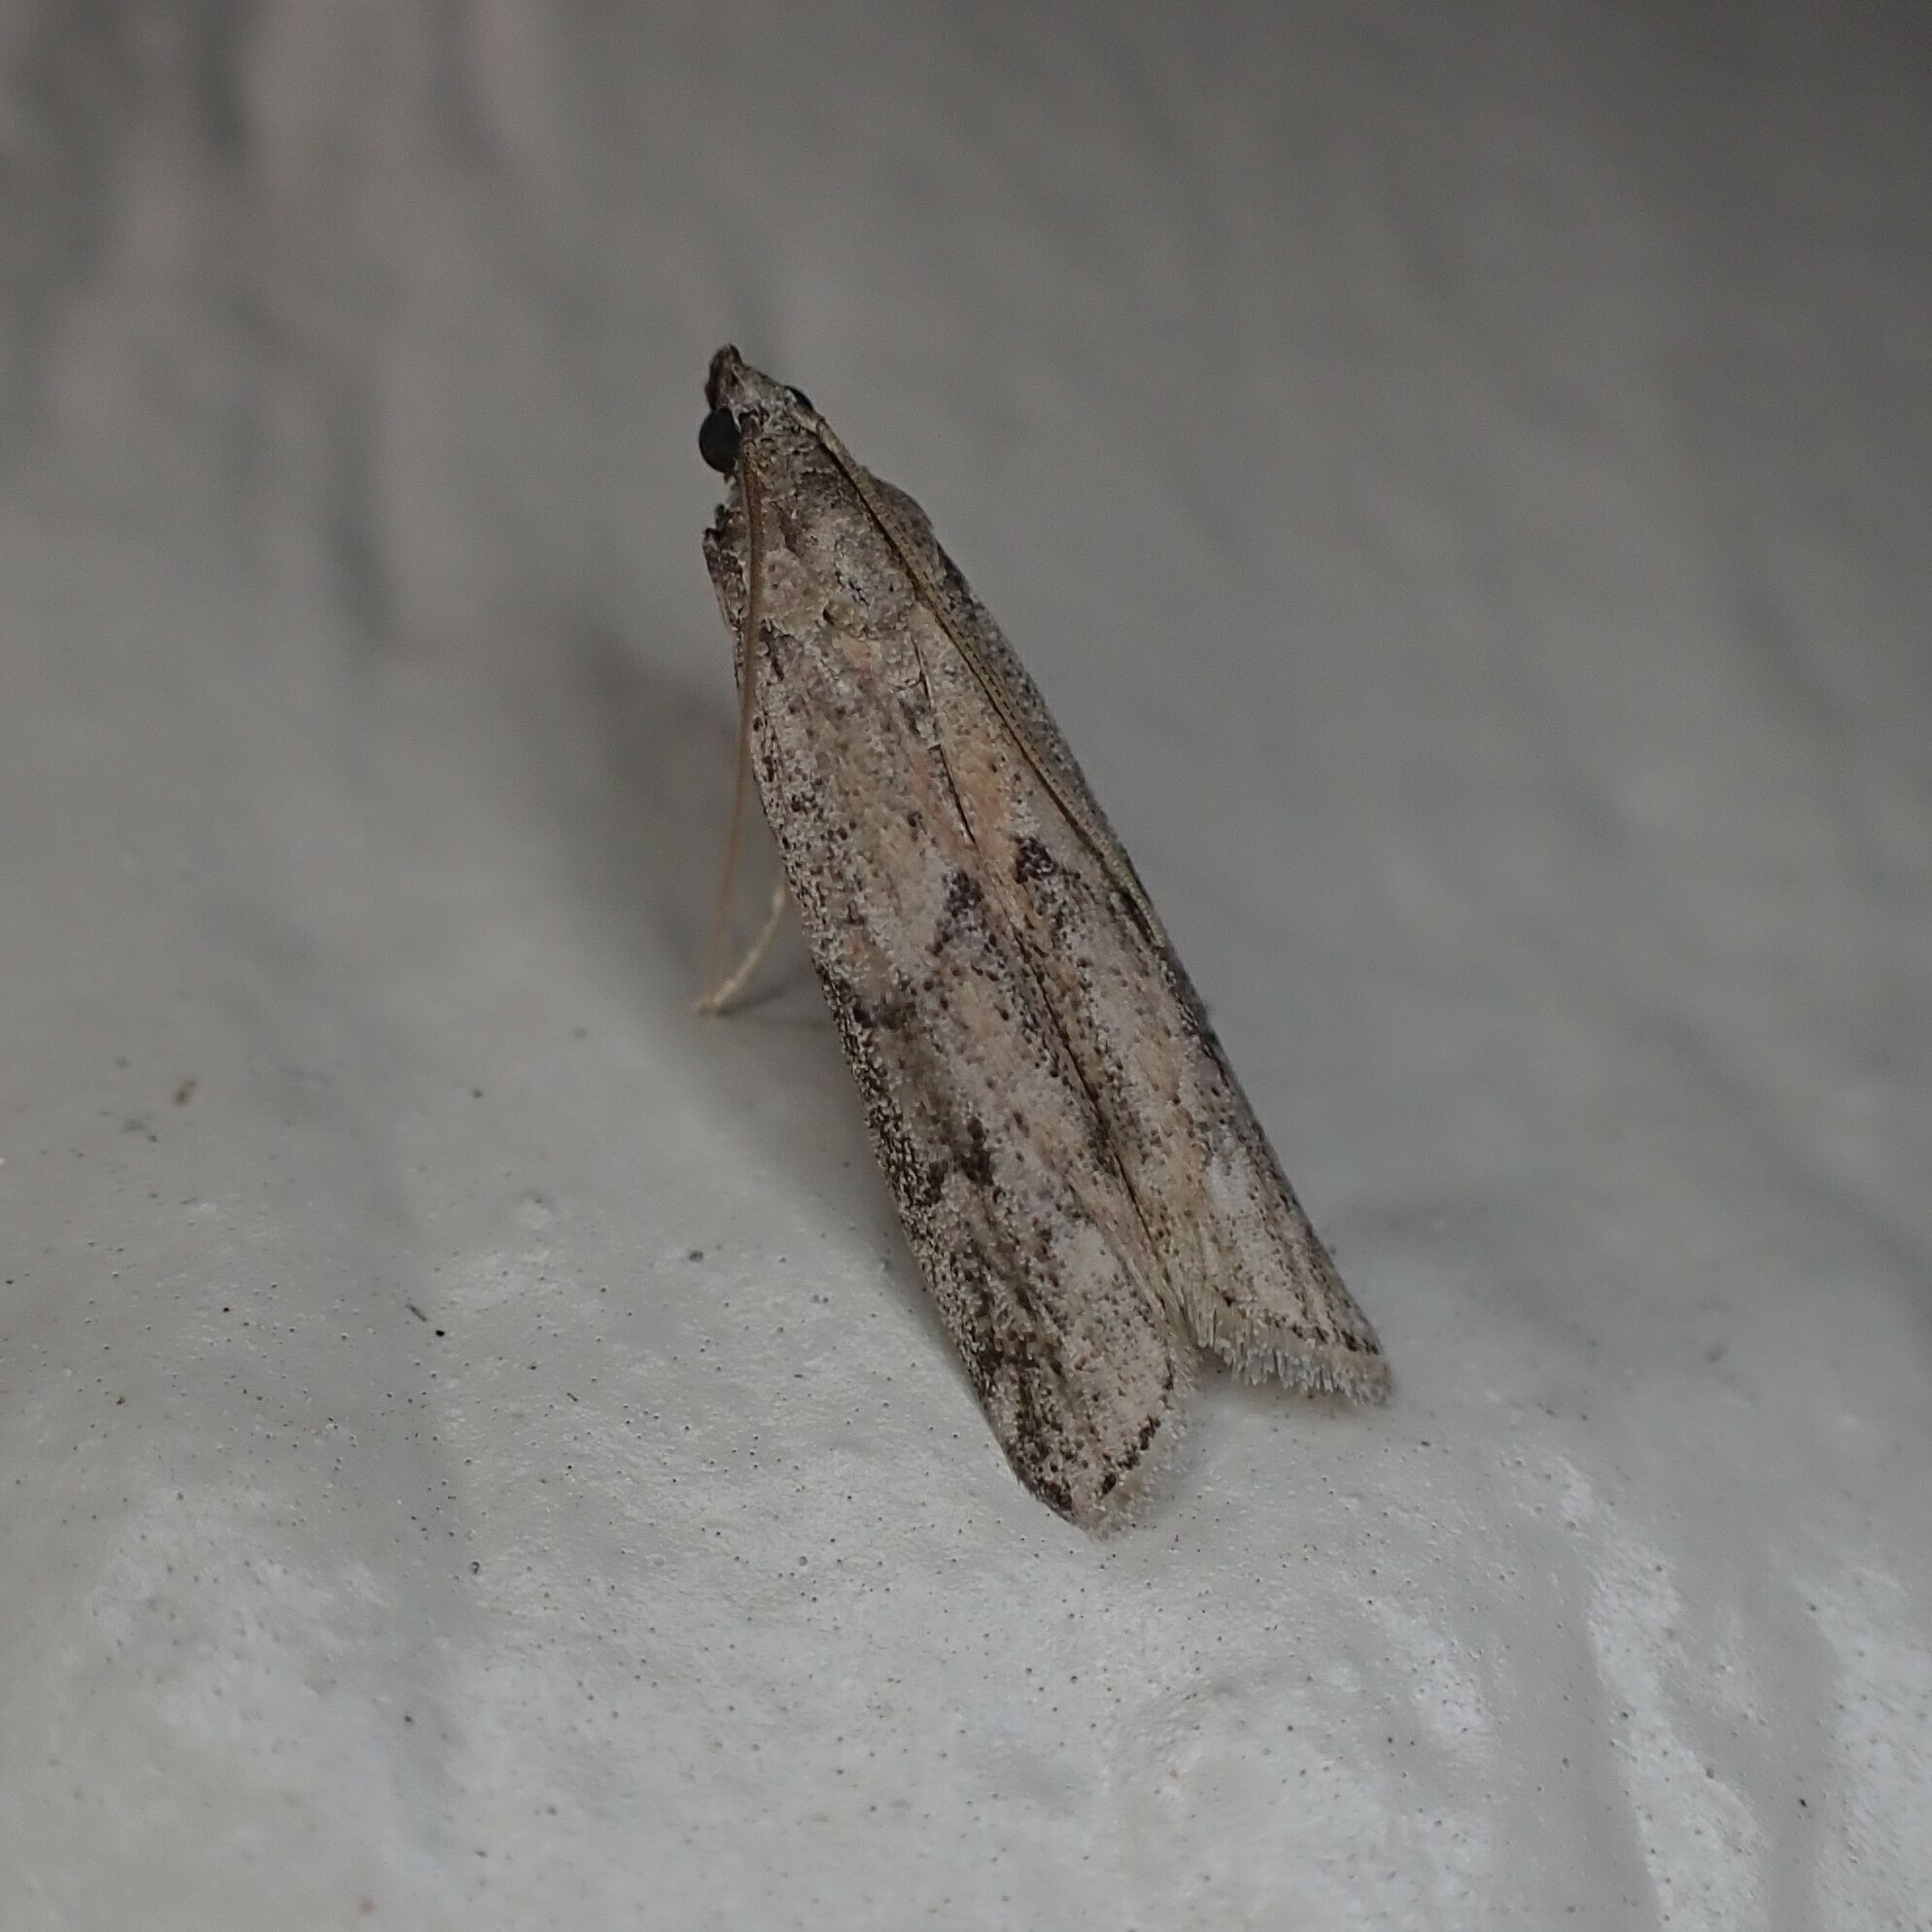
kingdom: Animalia
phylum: Arthropoda
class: Insecta
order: Lepidoptera
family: Pyralidae
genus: Ephestiodes
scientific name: Ephestiodes gilvescentella
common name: Moth
